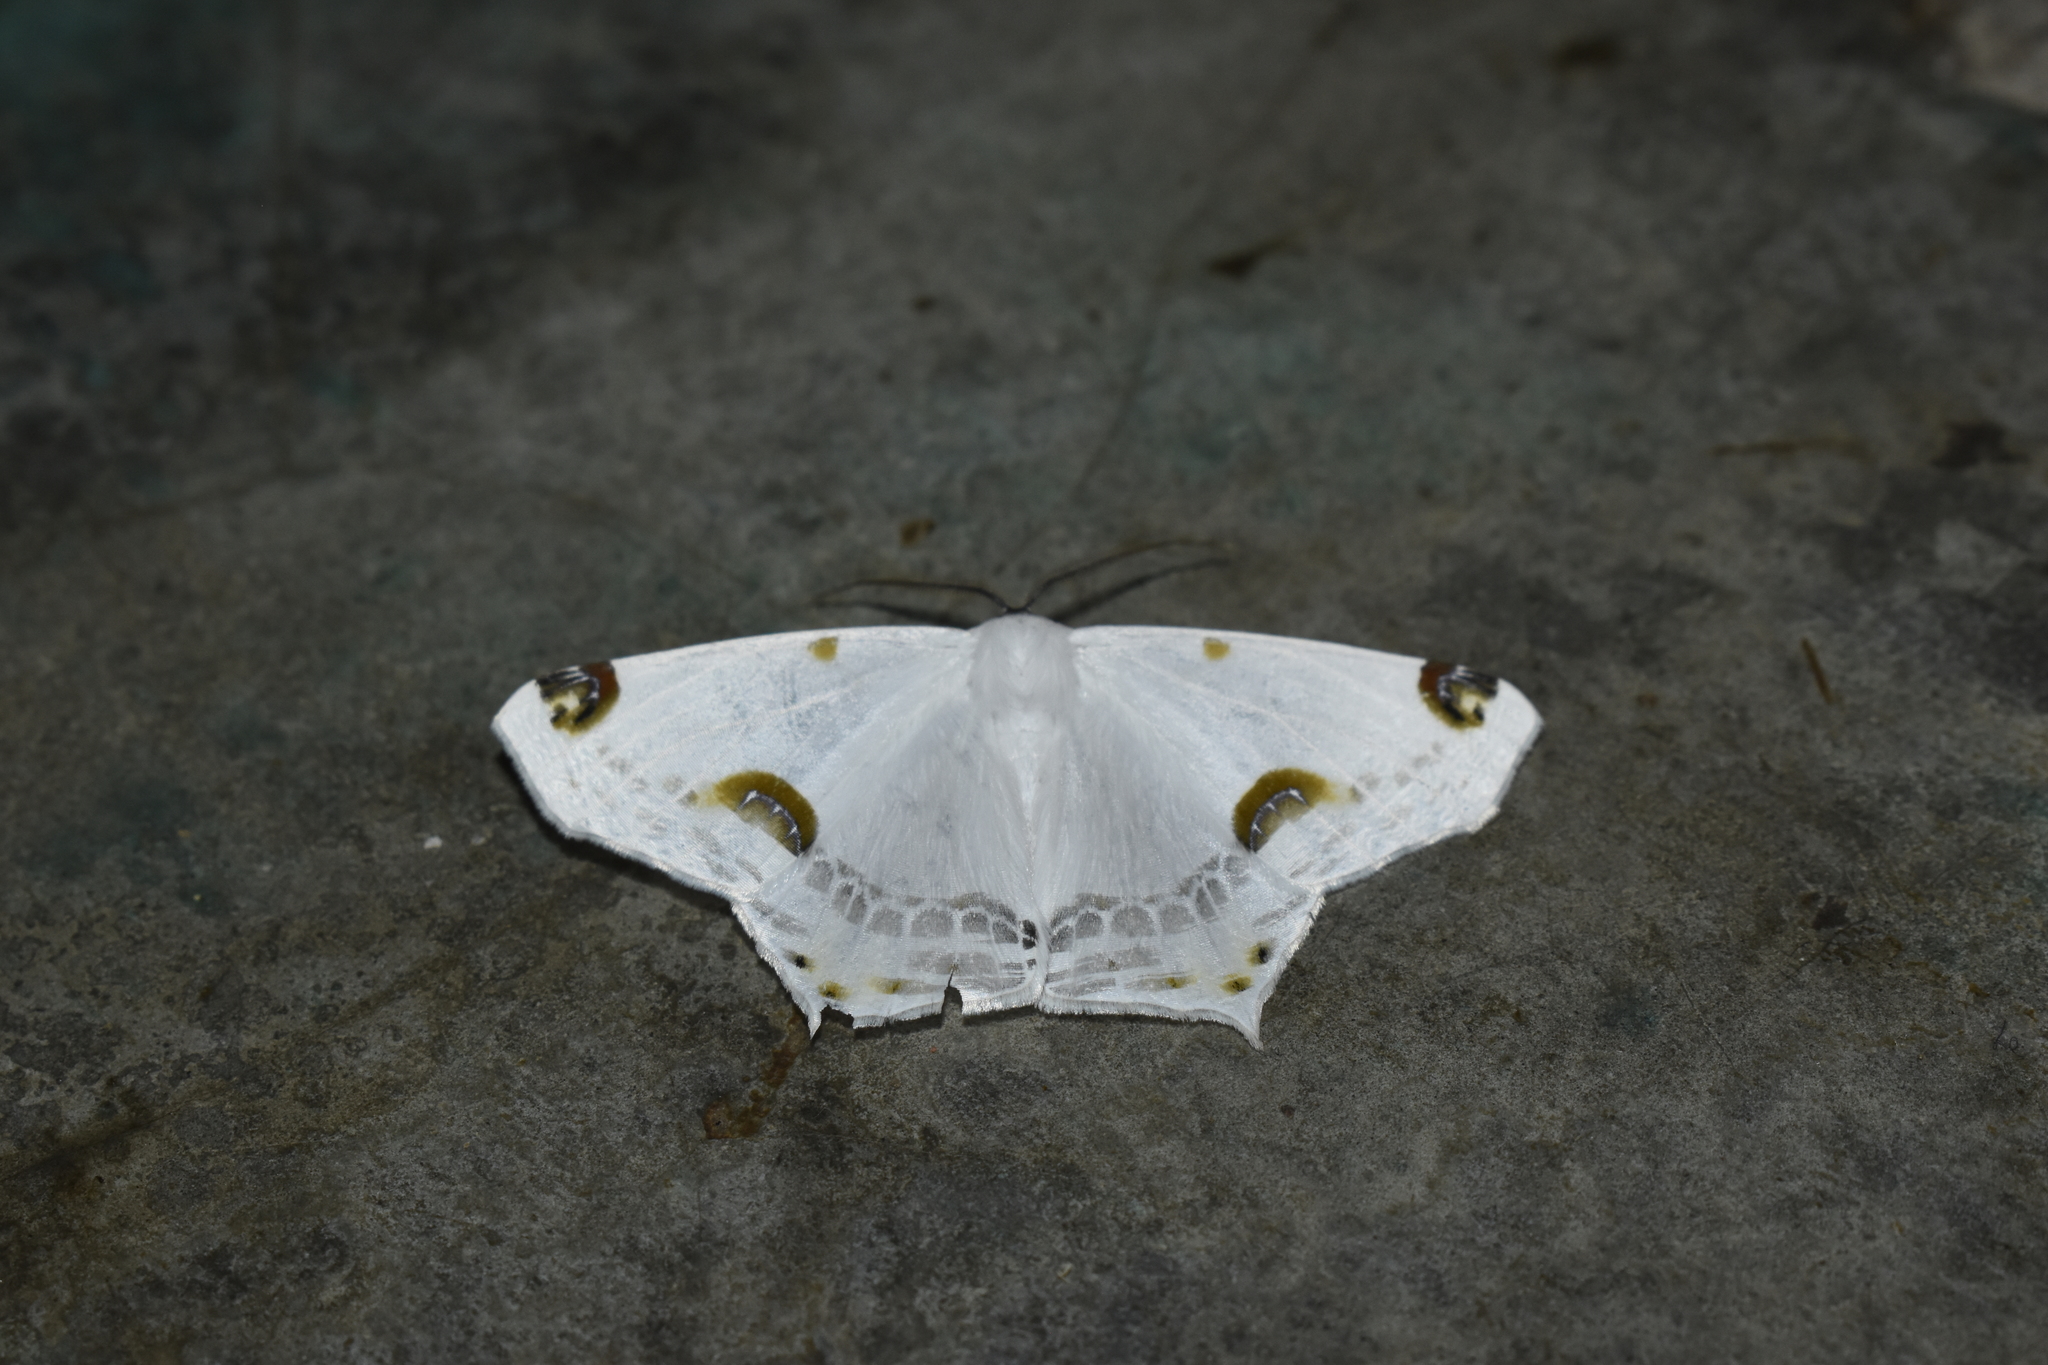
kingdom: Animalia
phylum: Arthropoda
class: Insecta
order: Lepidoptera
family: Geometridae
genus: Sericoptera
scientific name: Sericoptera mahometaria
